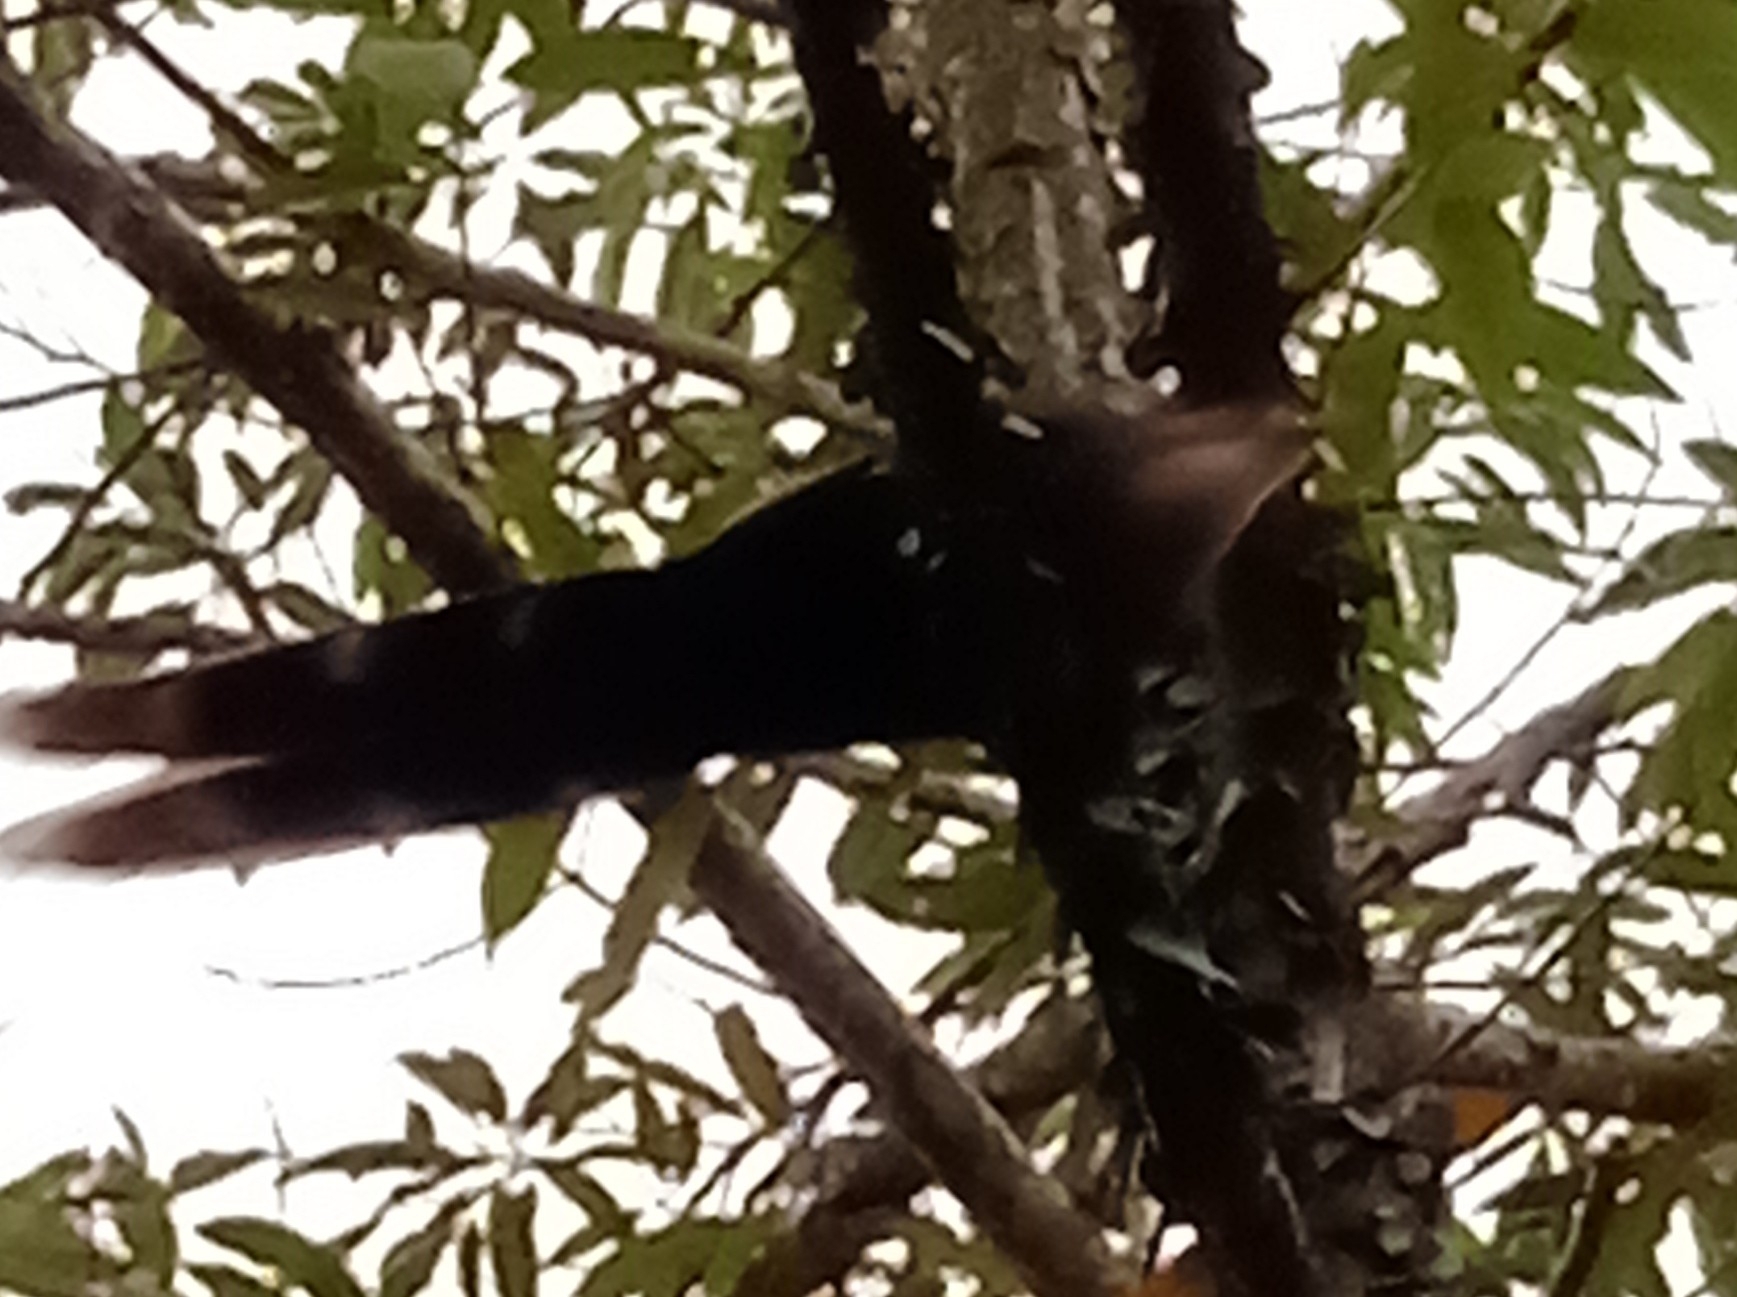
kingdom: Animalia
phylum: Chordata
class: Aves
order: Cuculiformes
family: Cuculidae
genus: Piaya
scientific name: Piaya cayana
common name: Squirrel cuckoo
